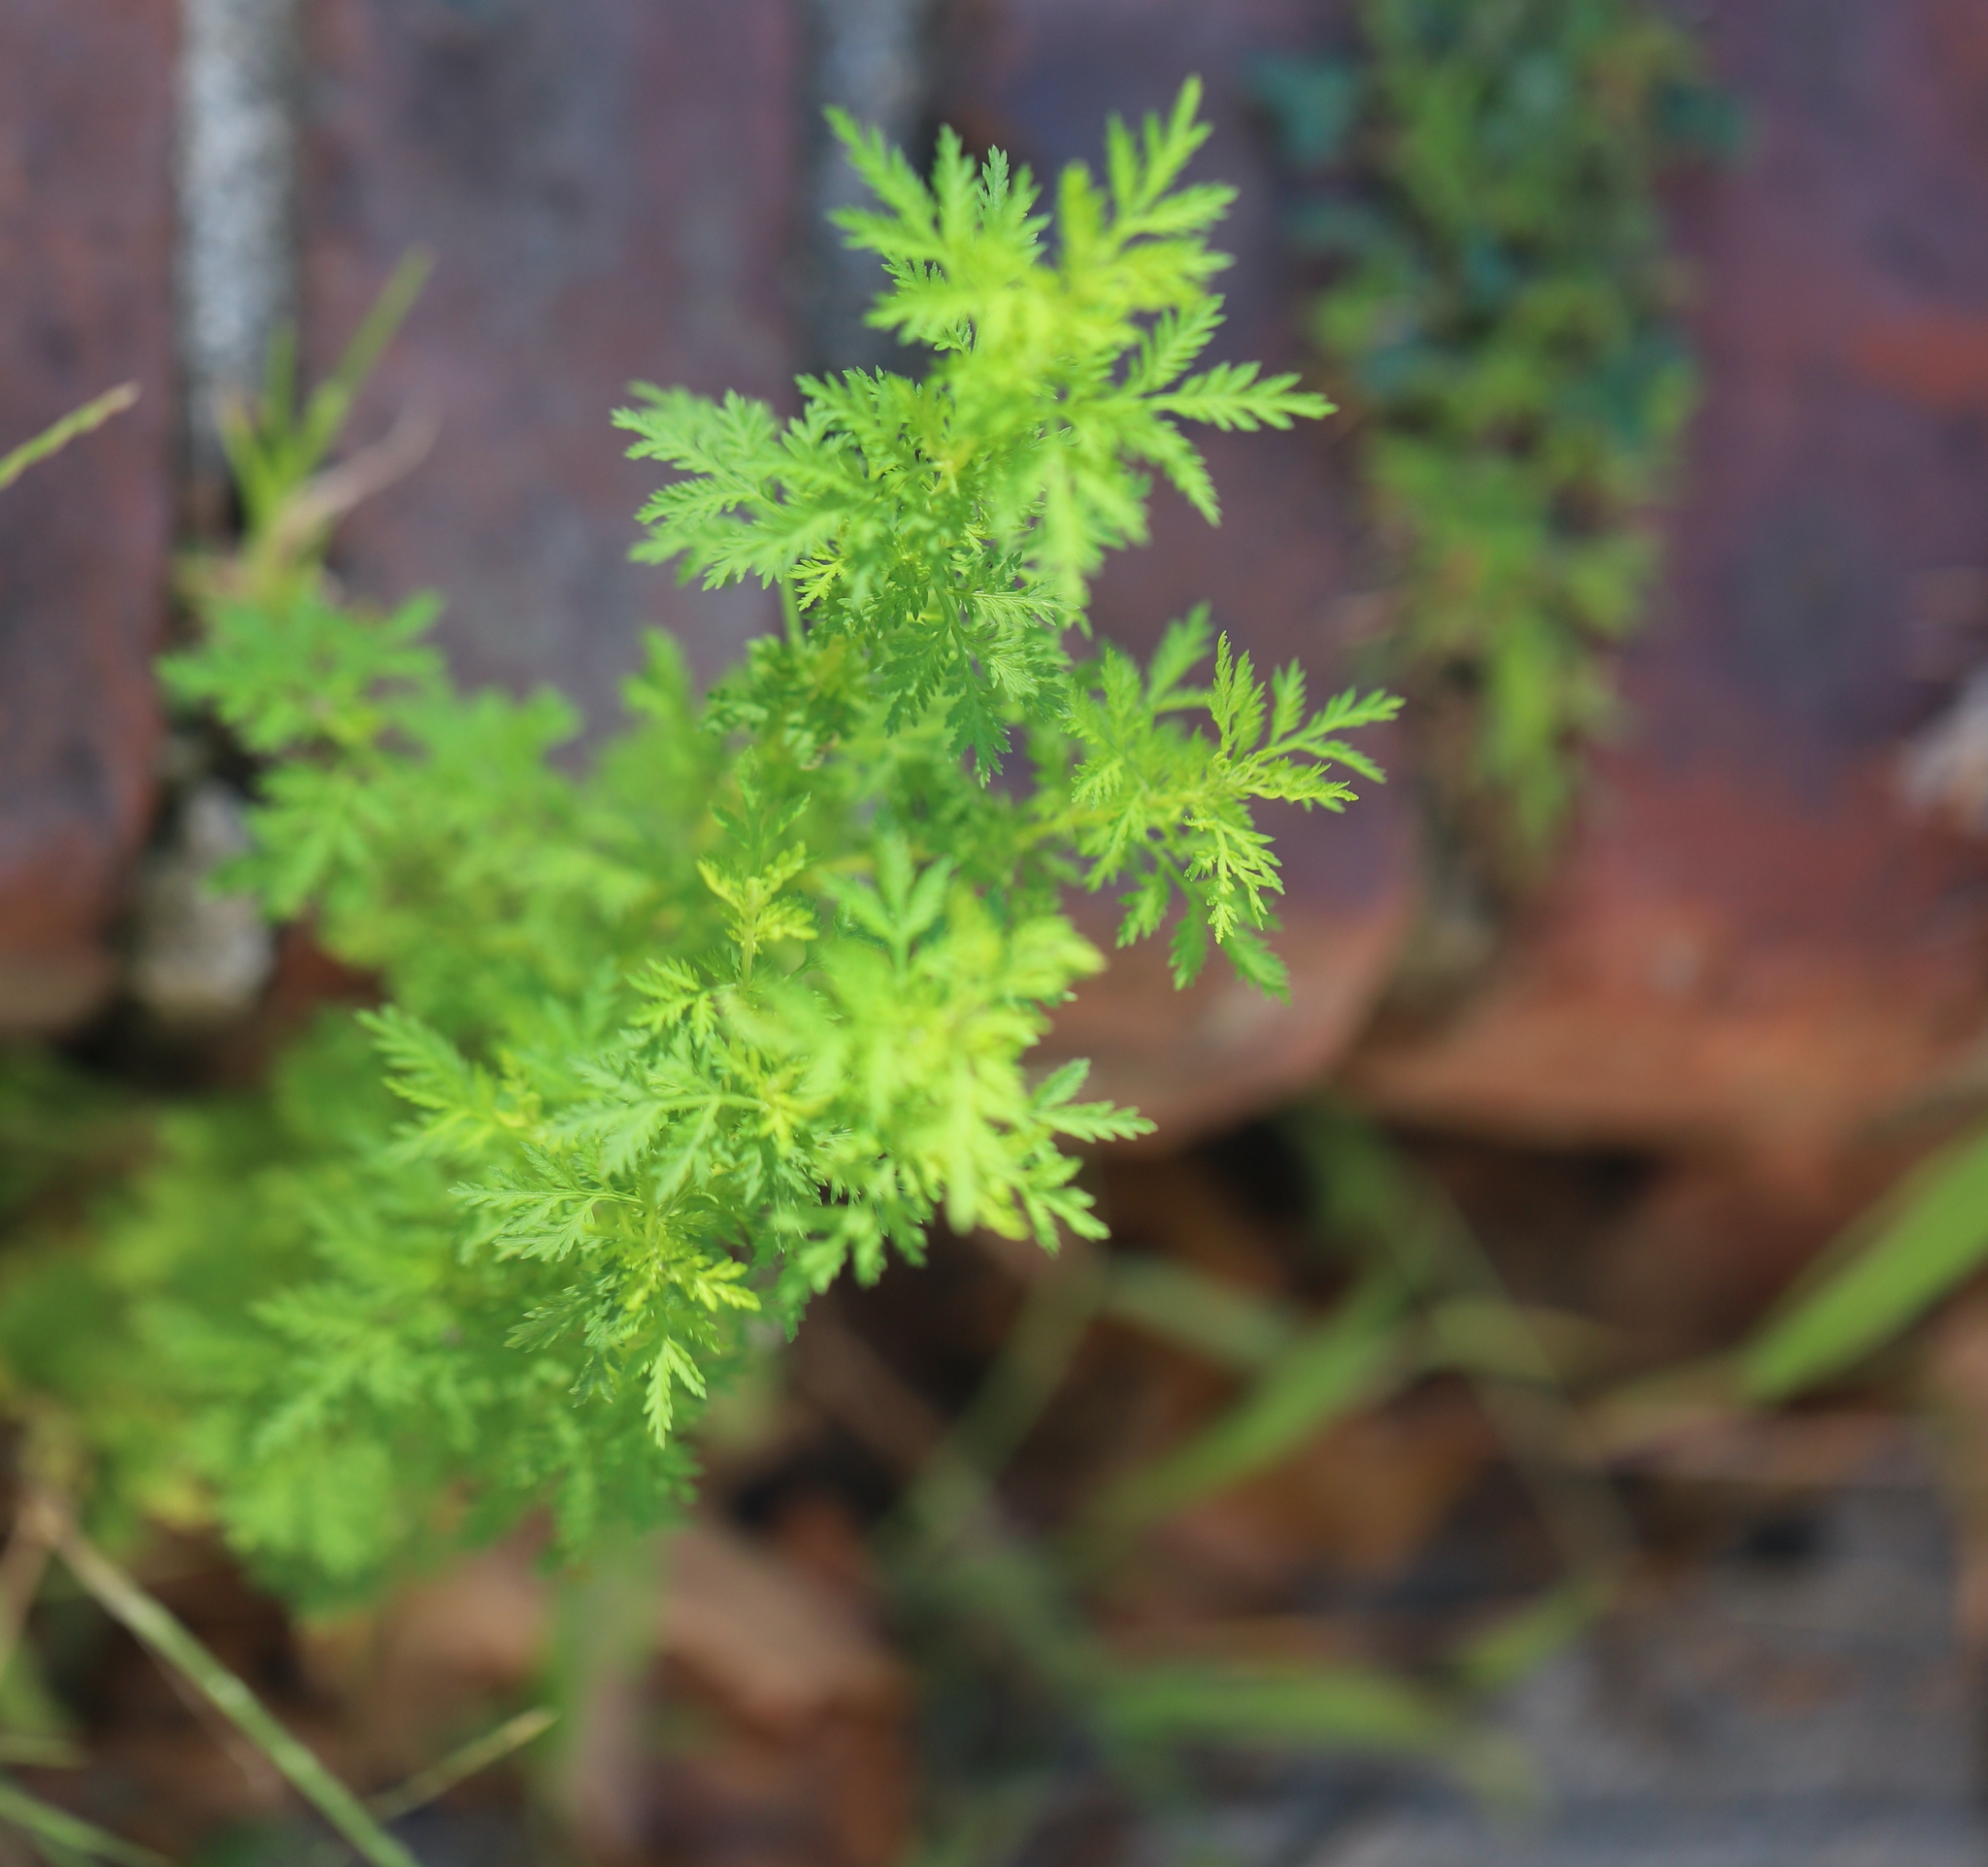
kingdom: Plantae
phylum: Tracheophyta
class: Magnoliopsida
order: Asterales
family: Asteraceae
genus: Artemisia
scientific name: Artemisia annua
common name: Sweet sagewort
